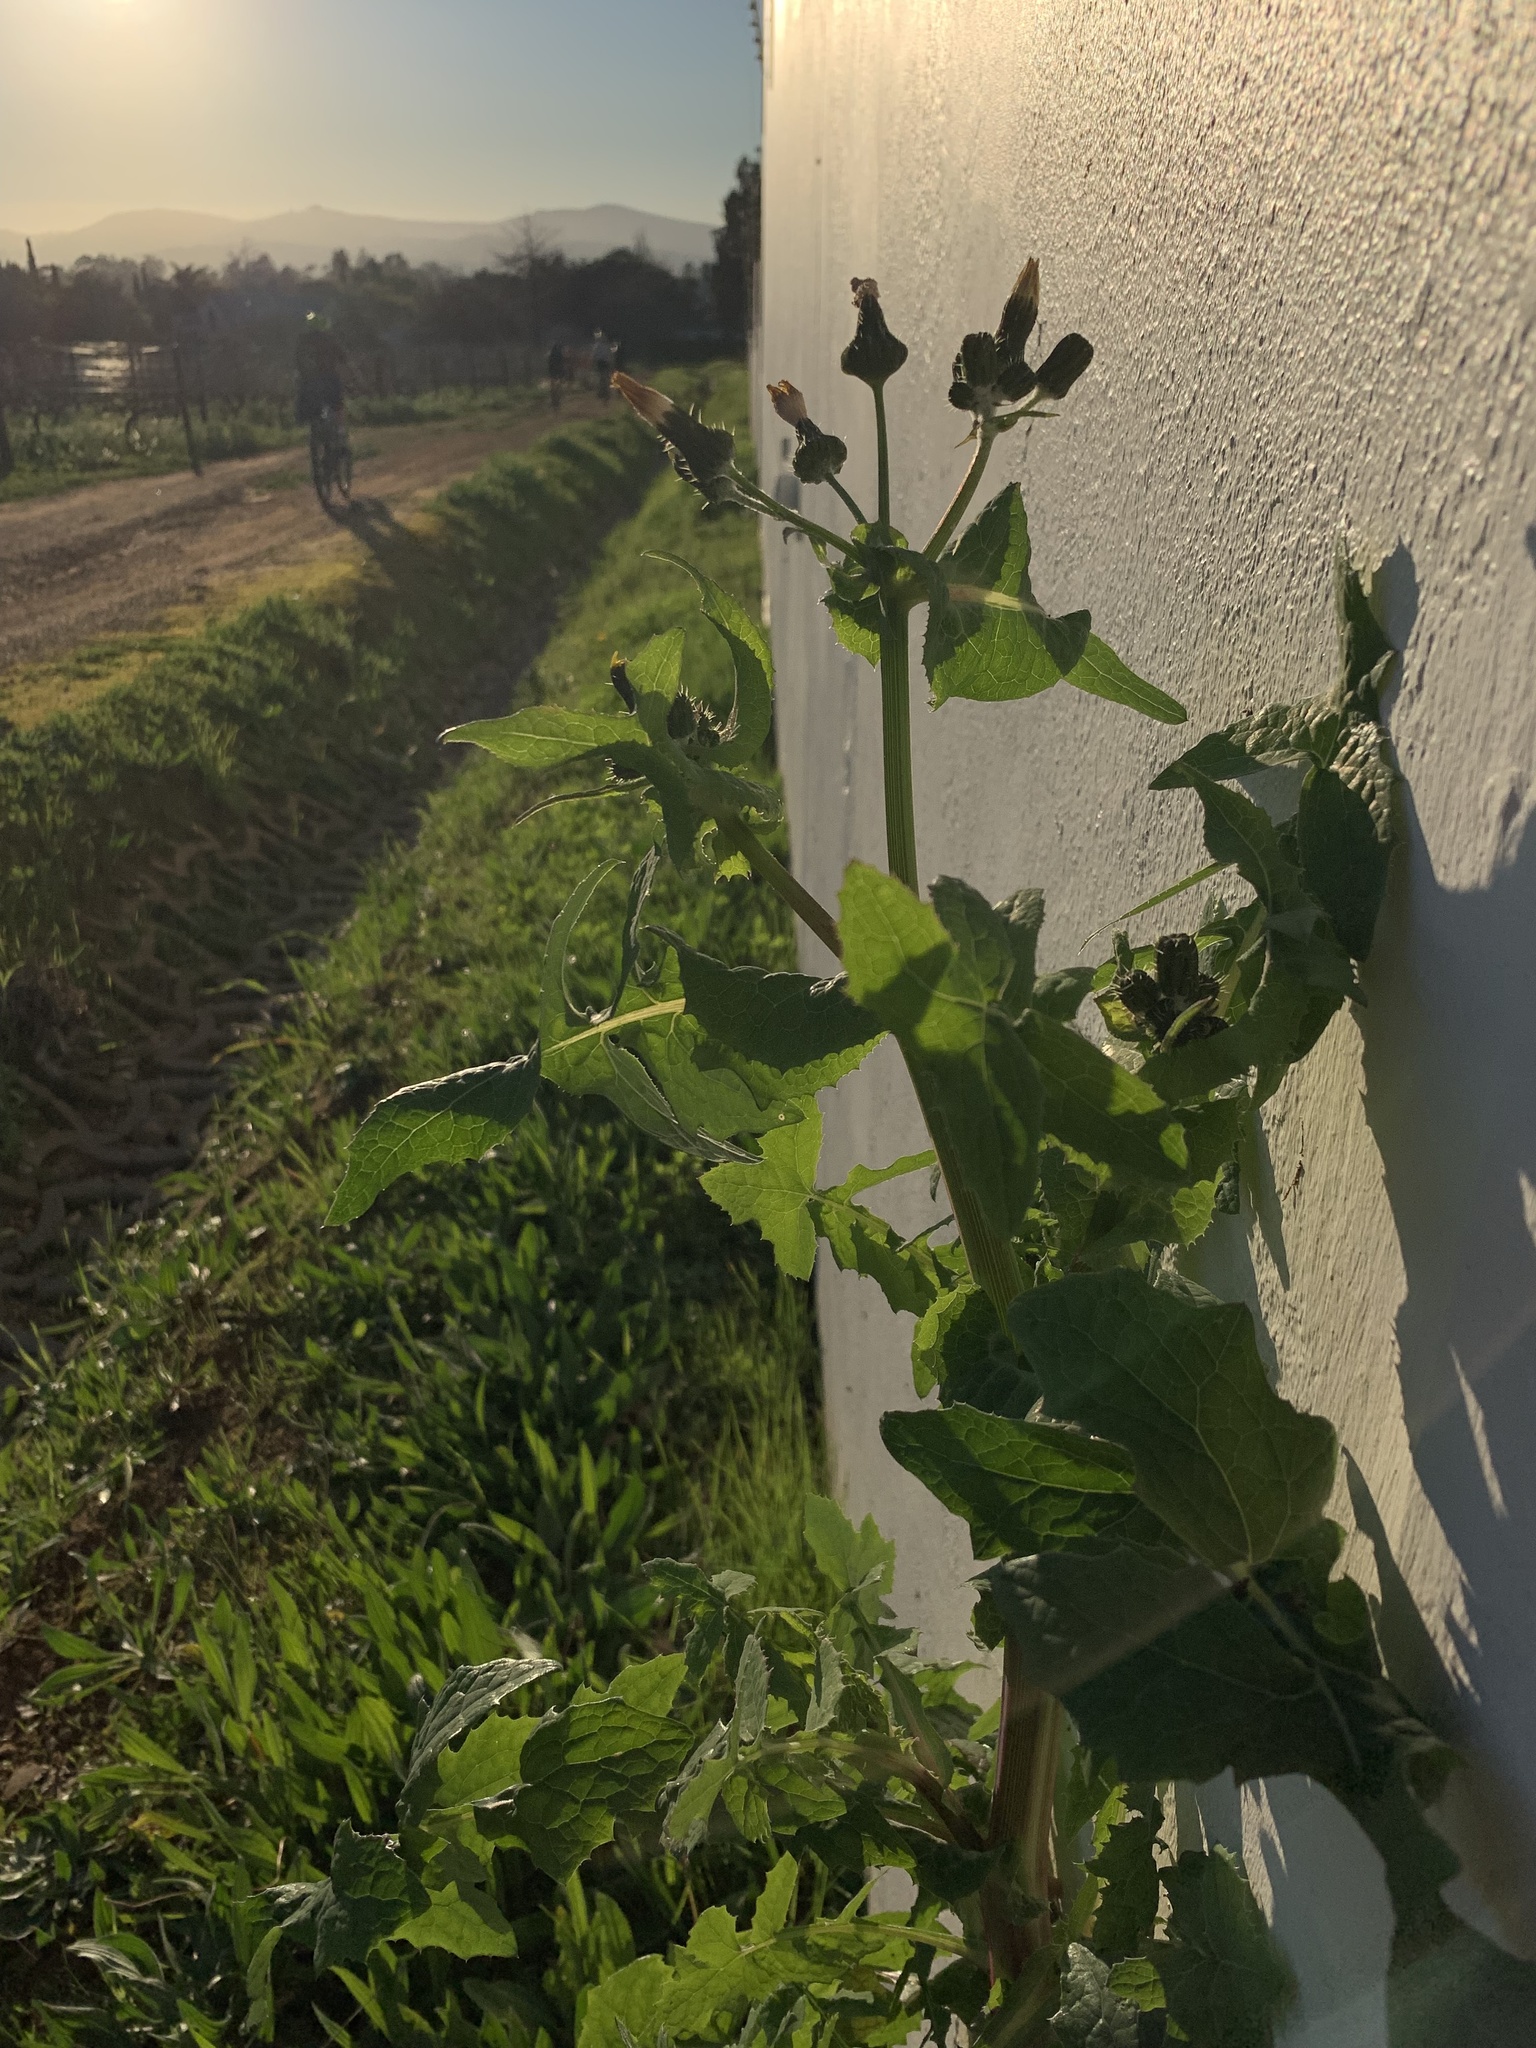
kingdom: Plantae
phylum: Tracheophyta
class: Magnoliopsida
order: Asterales
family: Asteraceae
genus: Sonchus
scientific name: Sonchus oleraceus
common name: Common sowthistle
